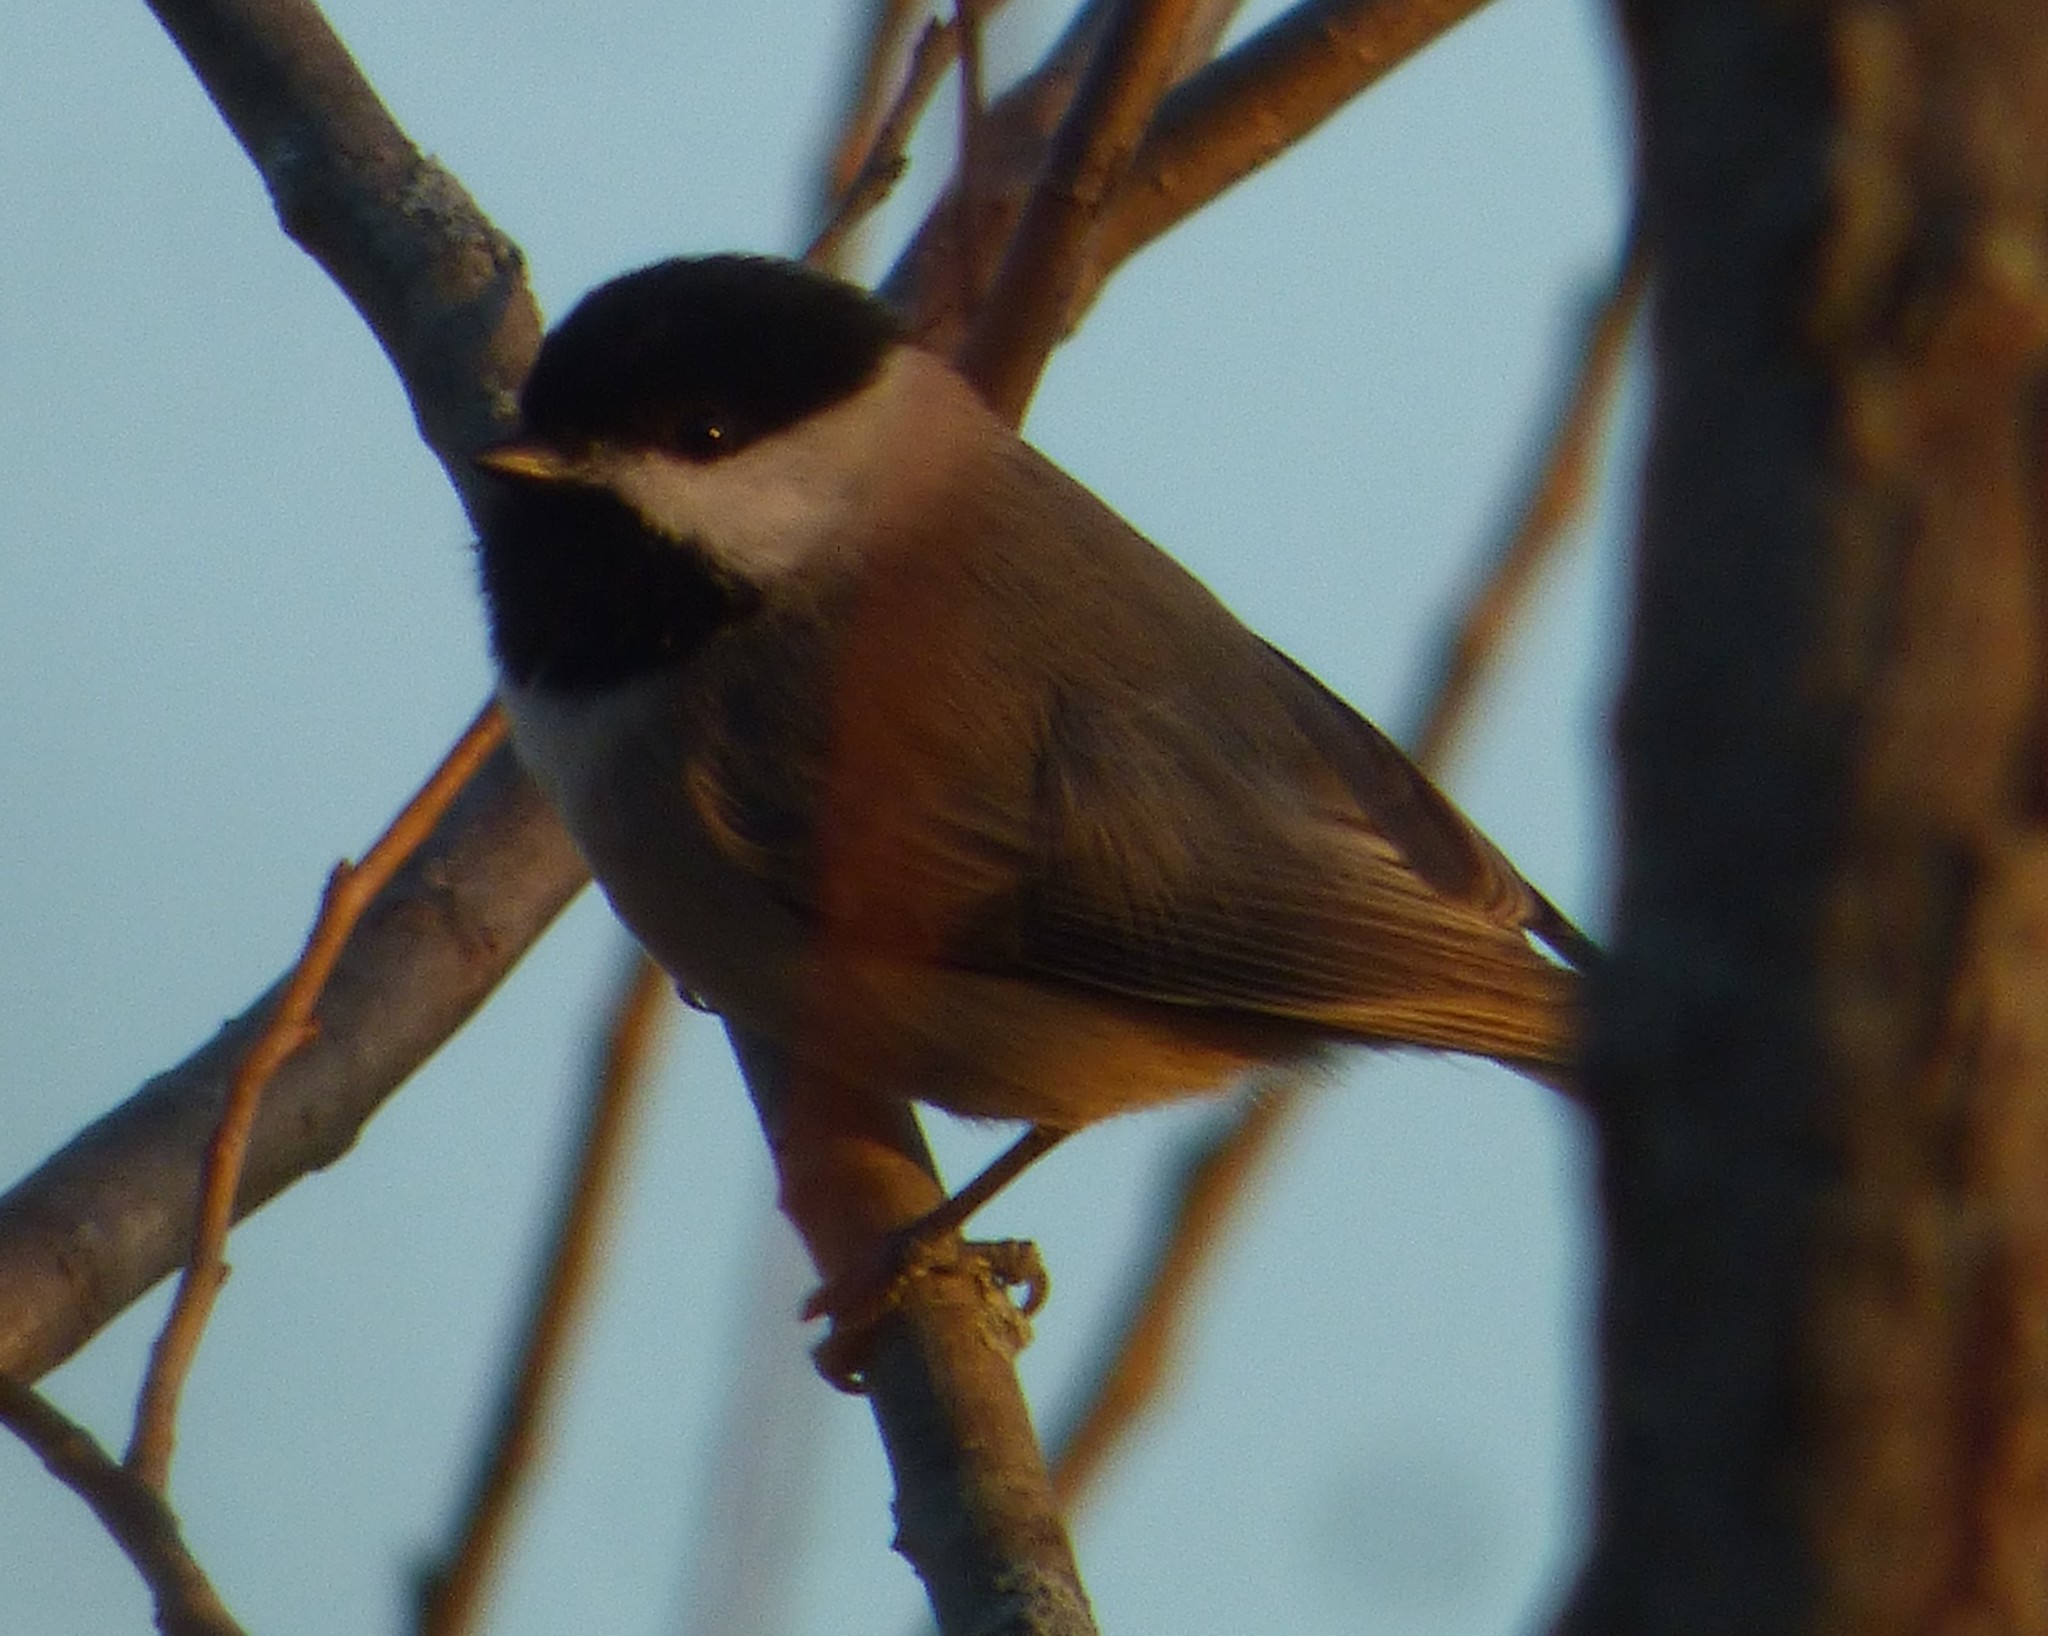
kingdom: Animalia
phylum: Chordata
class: Aves
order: Passeriformes
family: Paridae
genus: Poecile
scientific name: Poecile carolinensis
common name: Carolina chickadee
